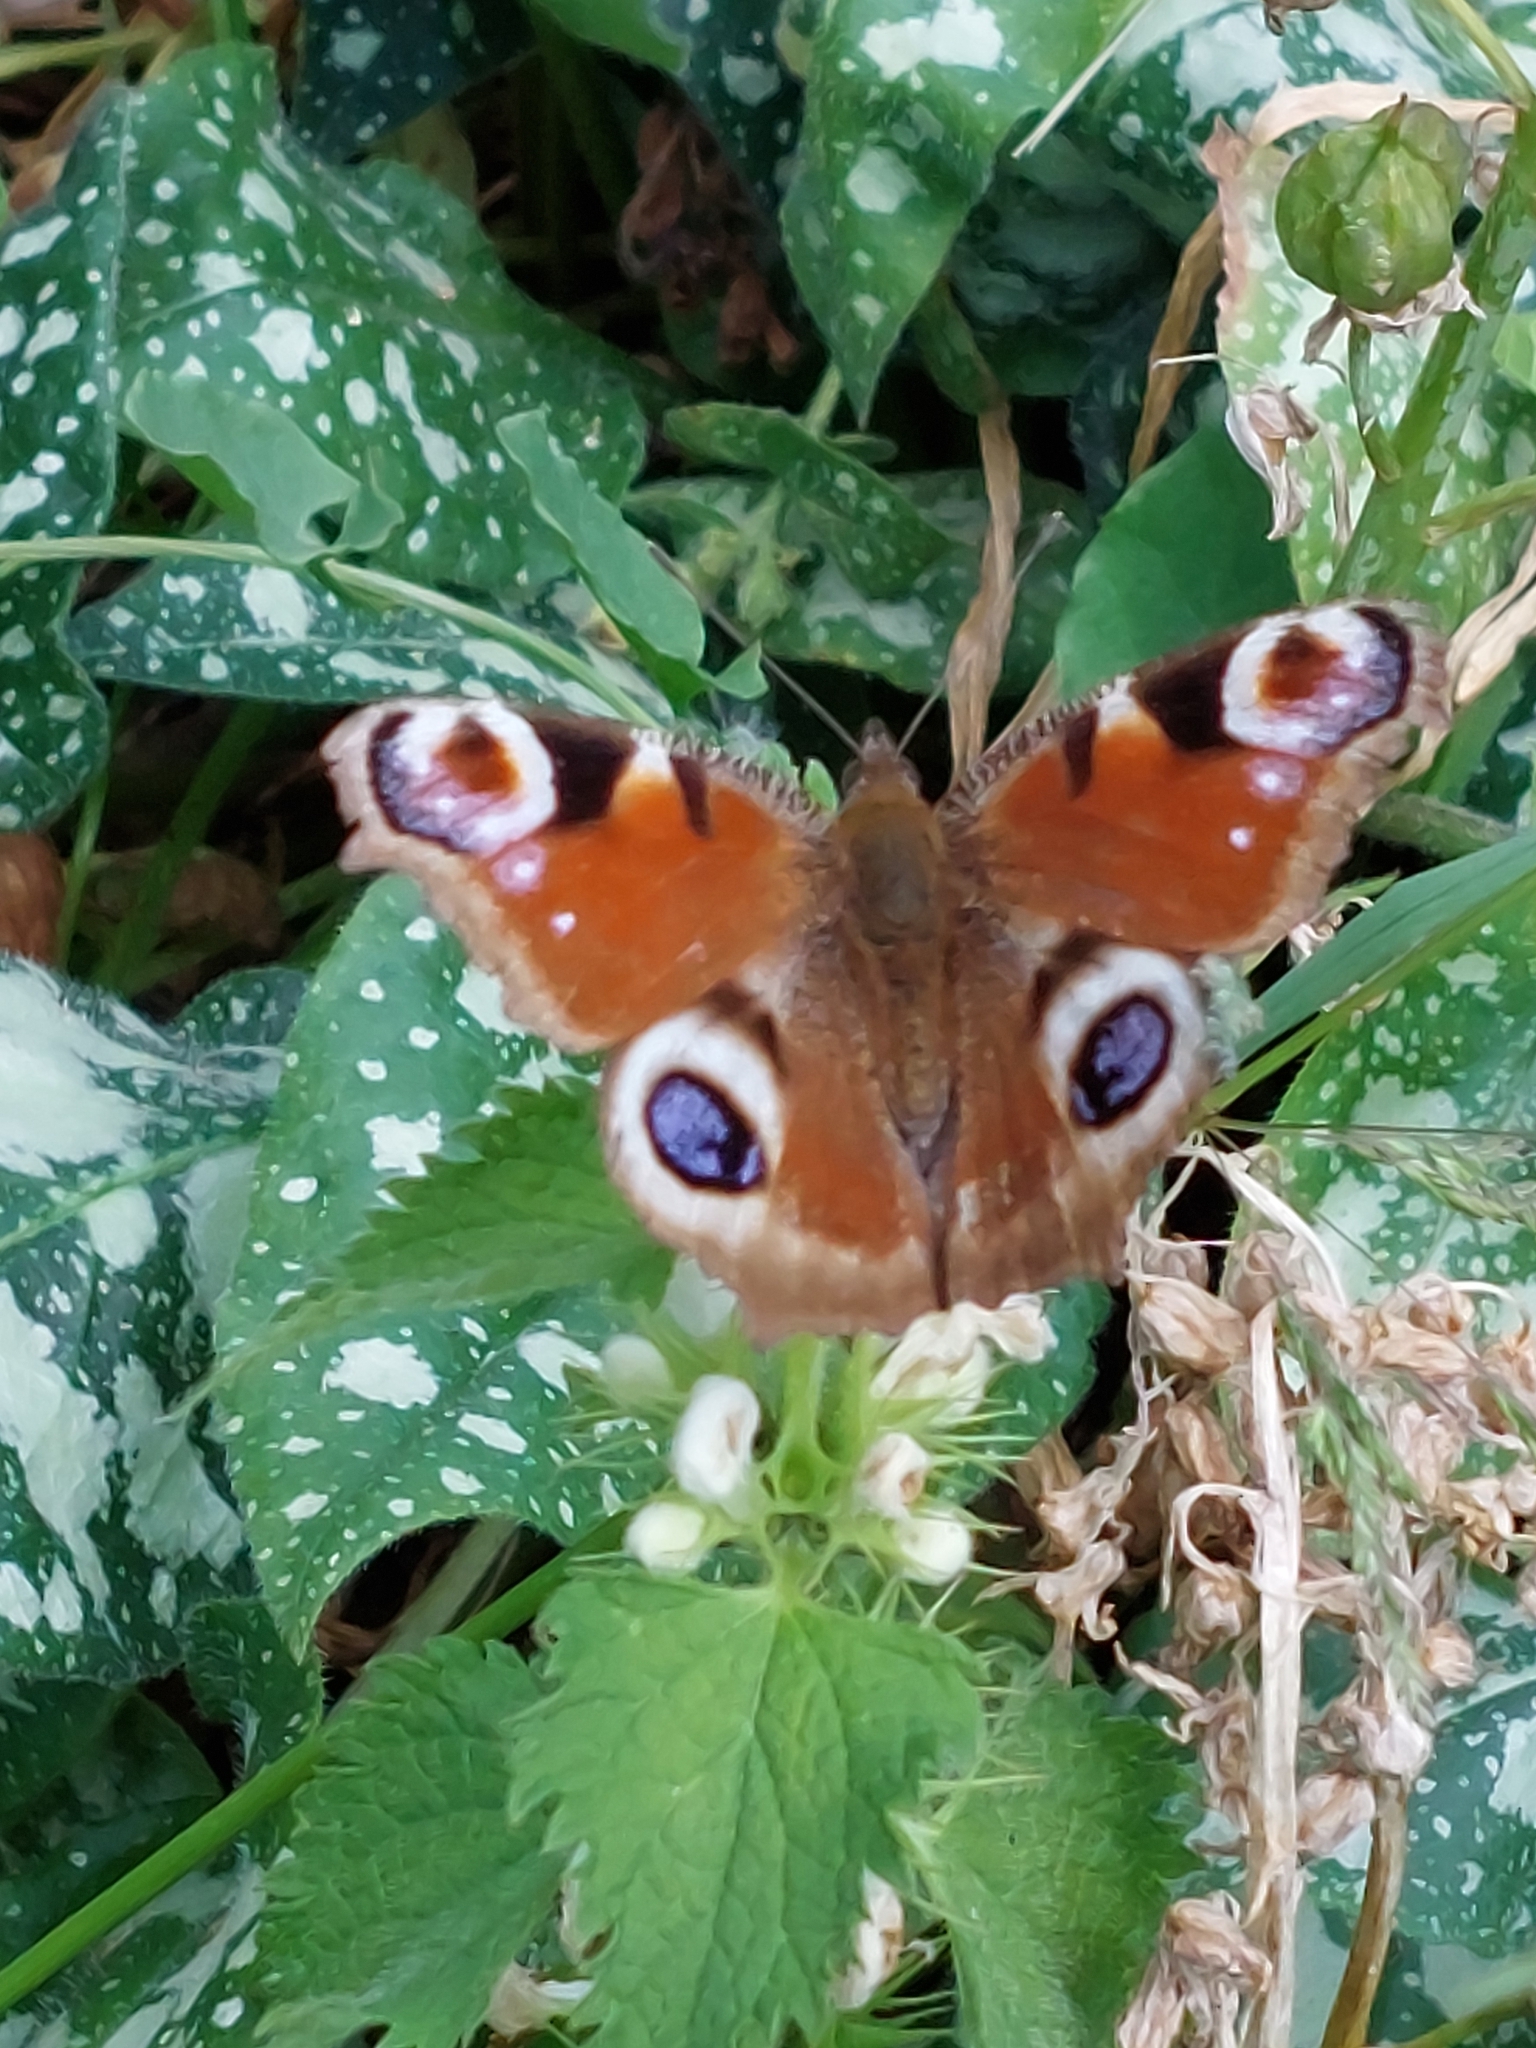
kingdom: Animalia
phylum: Arthropoda
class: Insecta
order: Lepidoptera
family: Nymphalidae
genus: Aglais
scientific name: Aglais io
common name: Peacock
